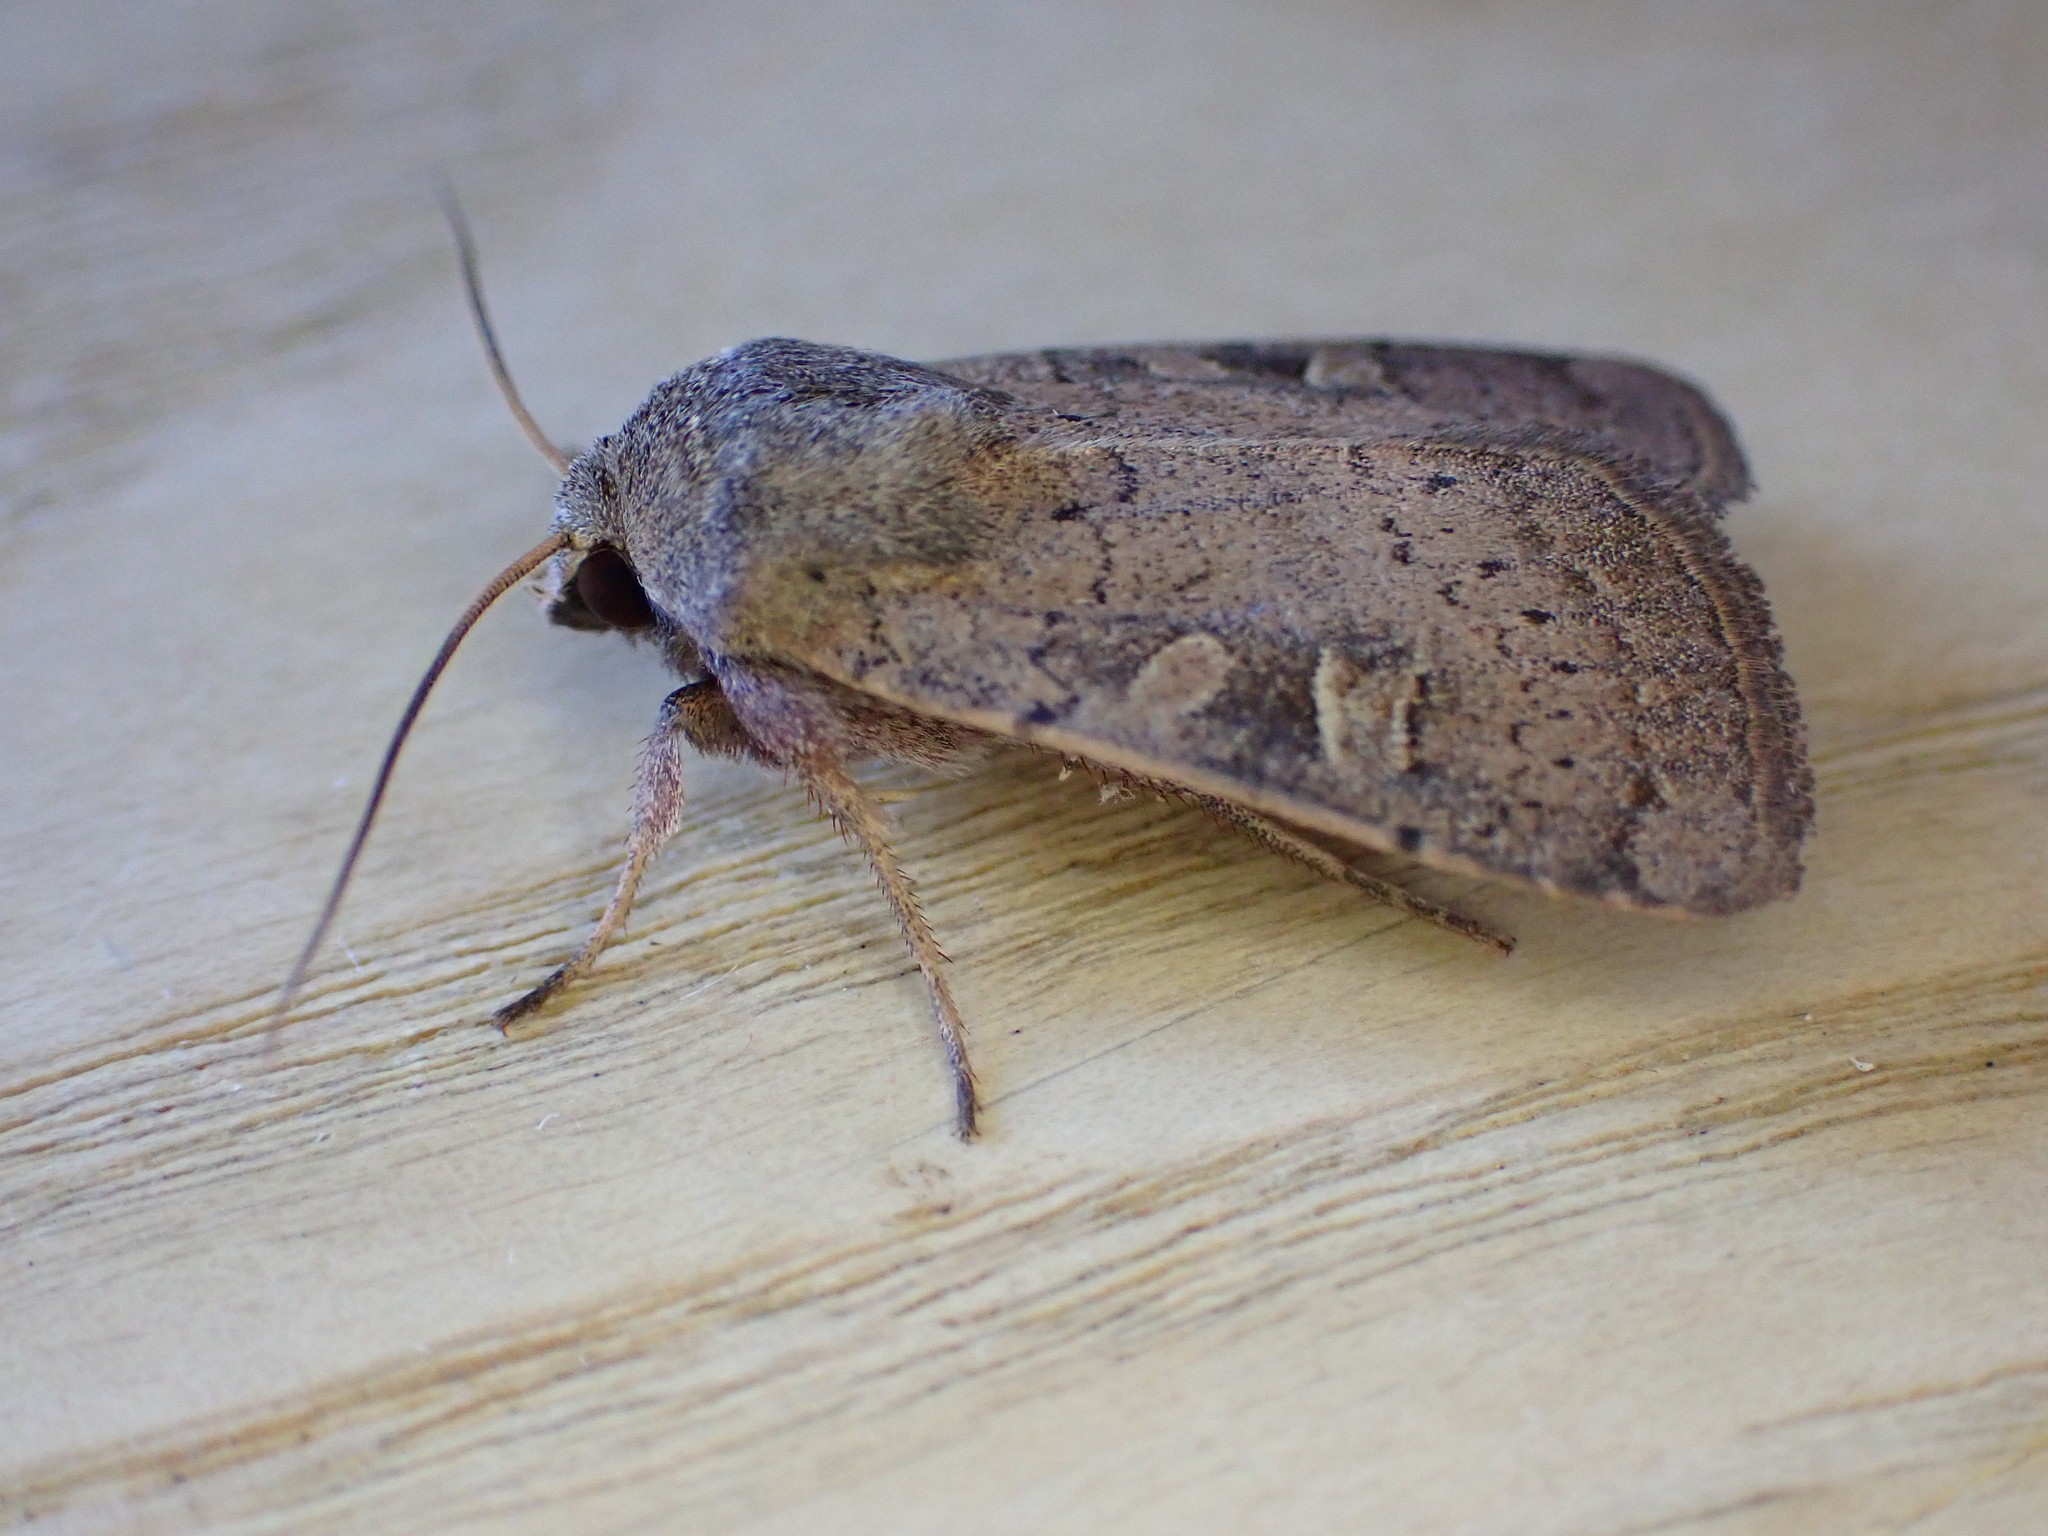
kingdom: Animalia
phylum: Arthropoda
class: Insecta
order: Lepidoptera
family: Noctuidae
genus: Xestia
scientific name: Xestia xanthographa
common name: Square-spot rustic
